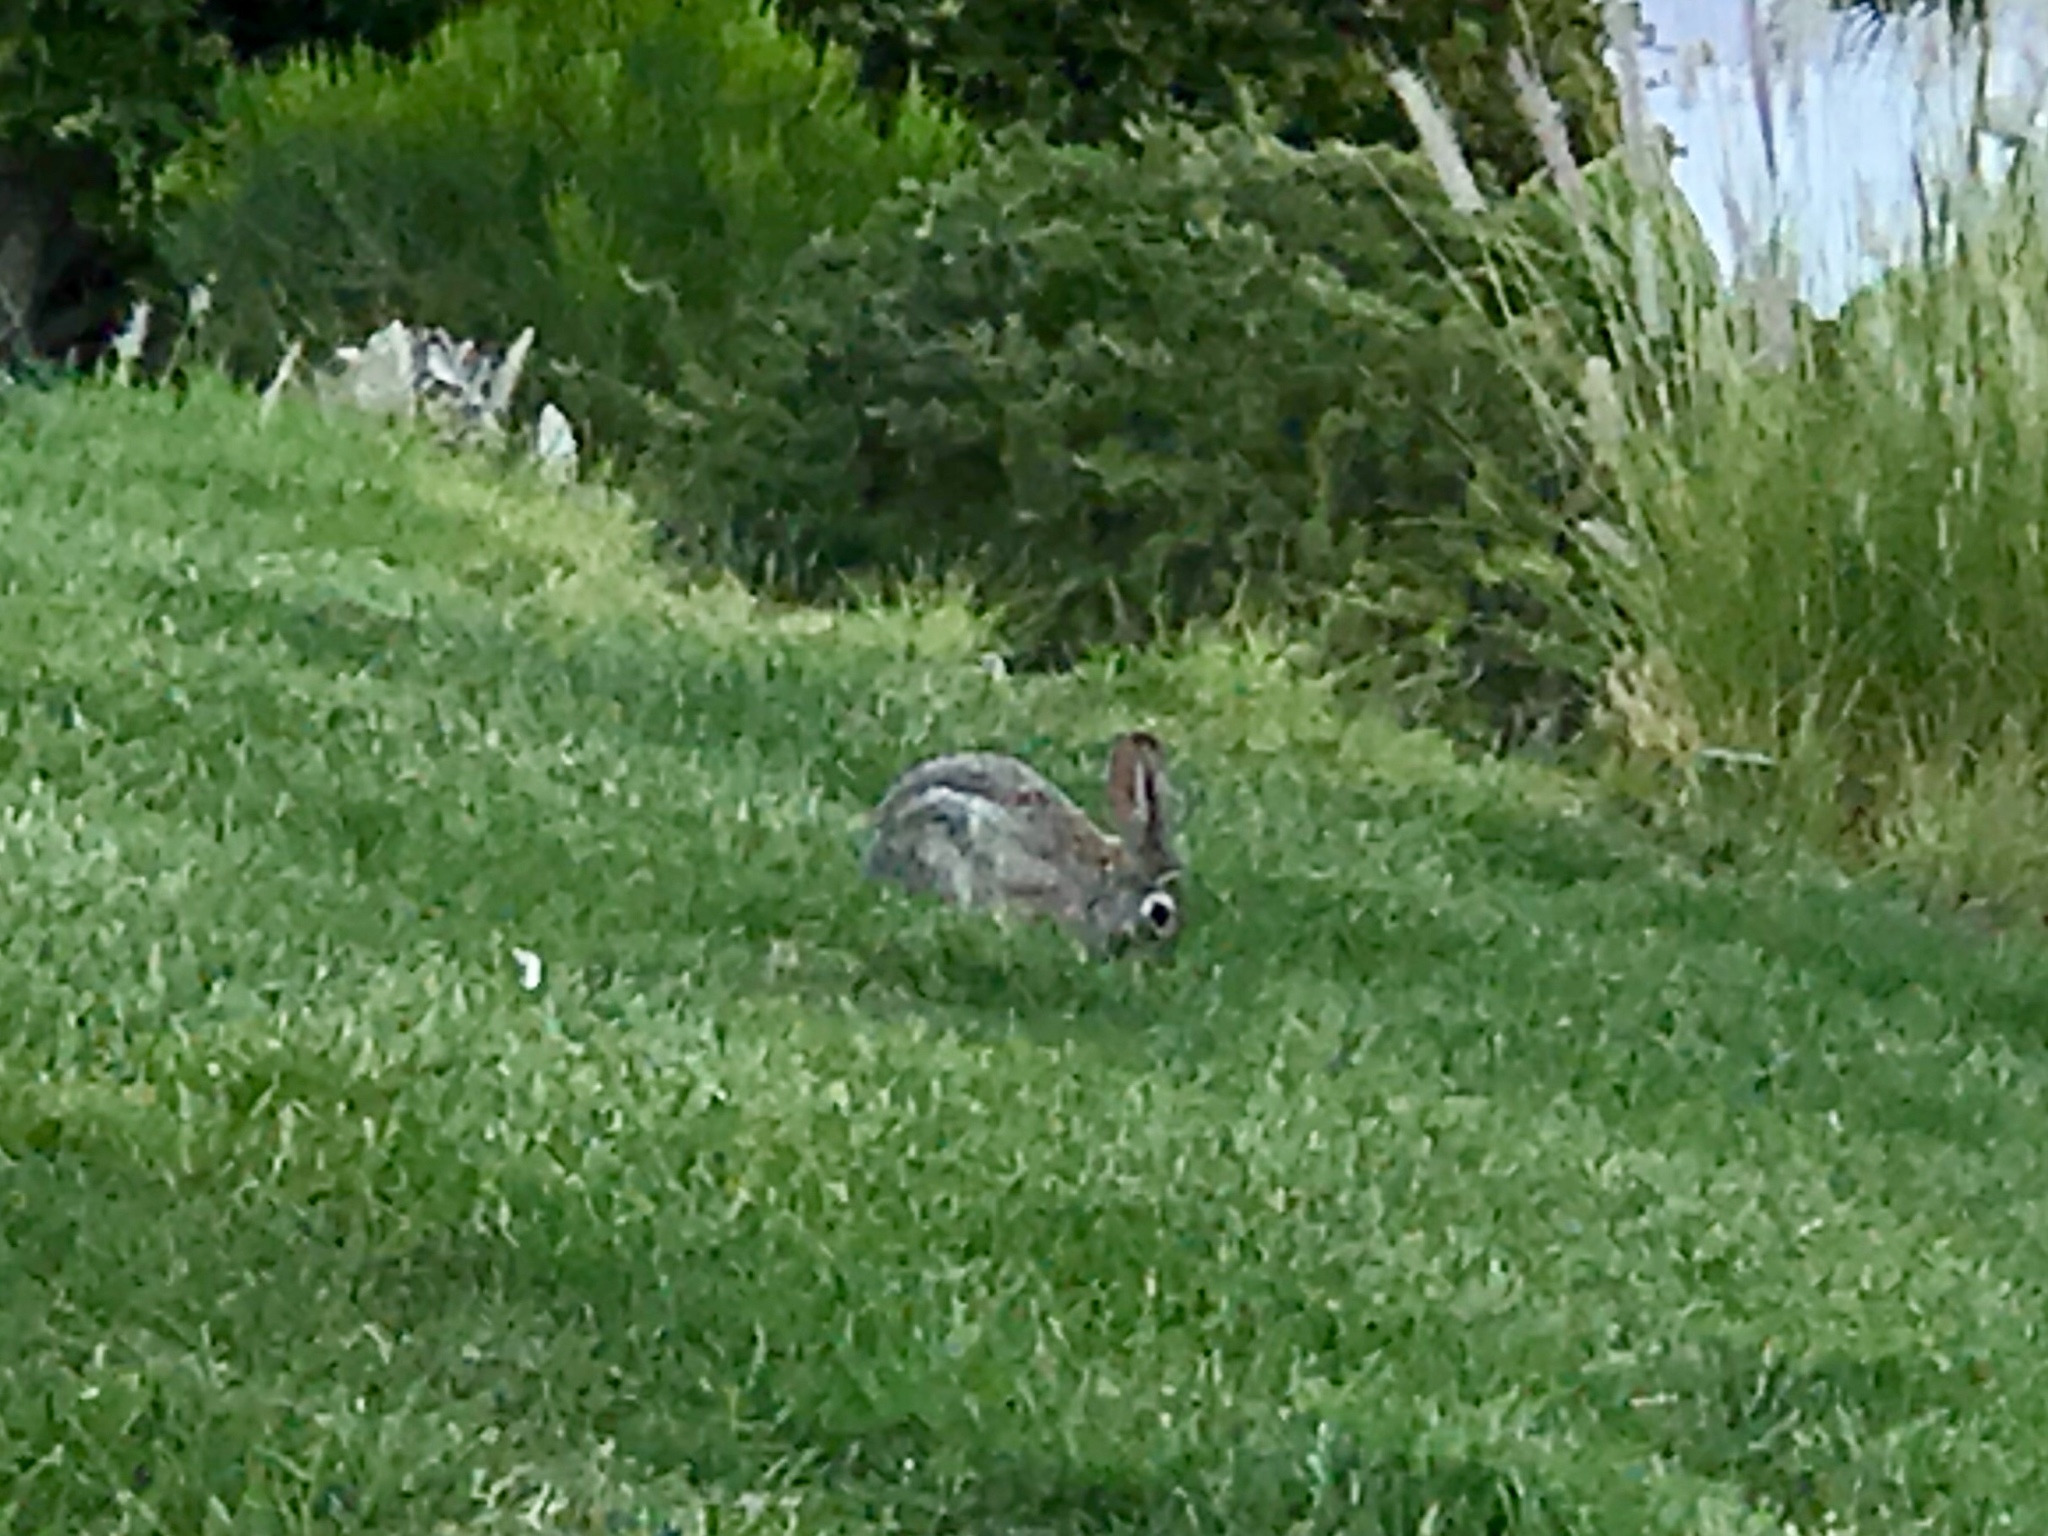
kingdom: Animalia
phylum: Chordata
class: Mammalia
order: Lagomorpha
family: Leporidae
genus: Sylvilagus
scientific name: Sylvilagus audubonii
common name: Desert cottontail
